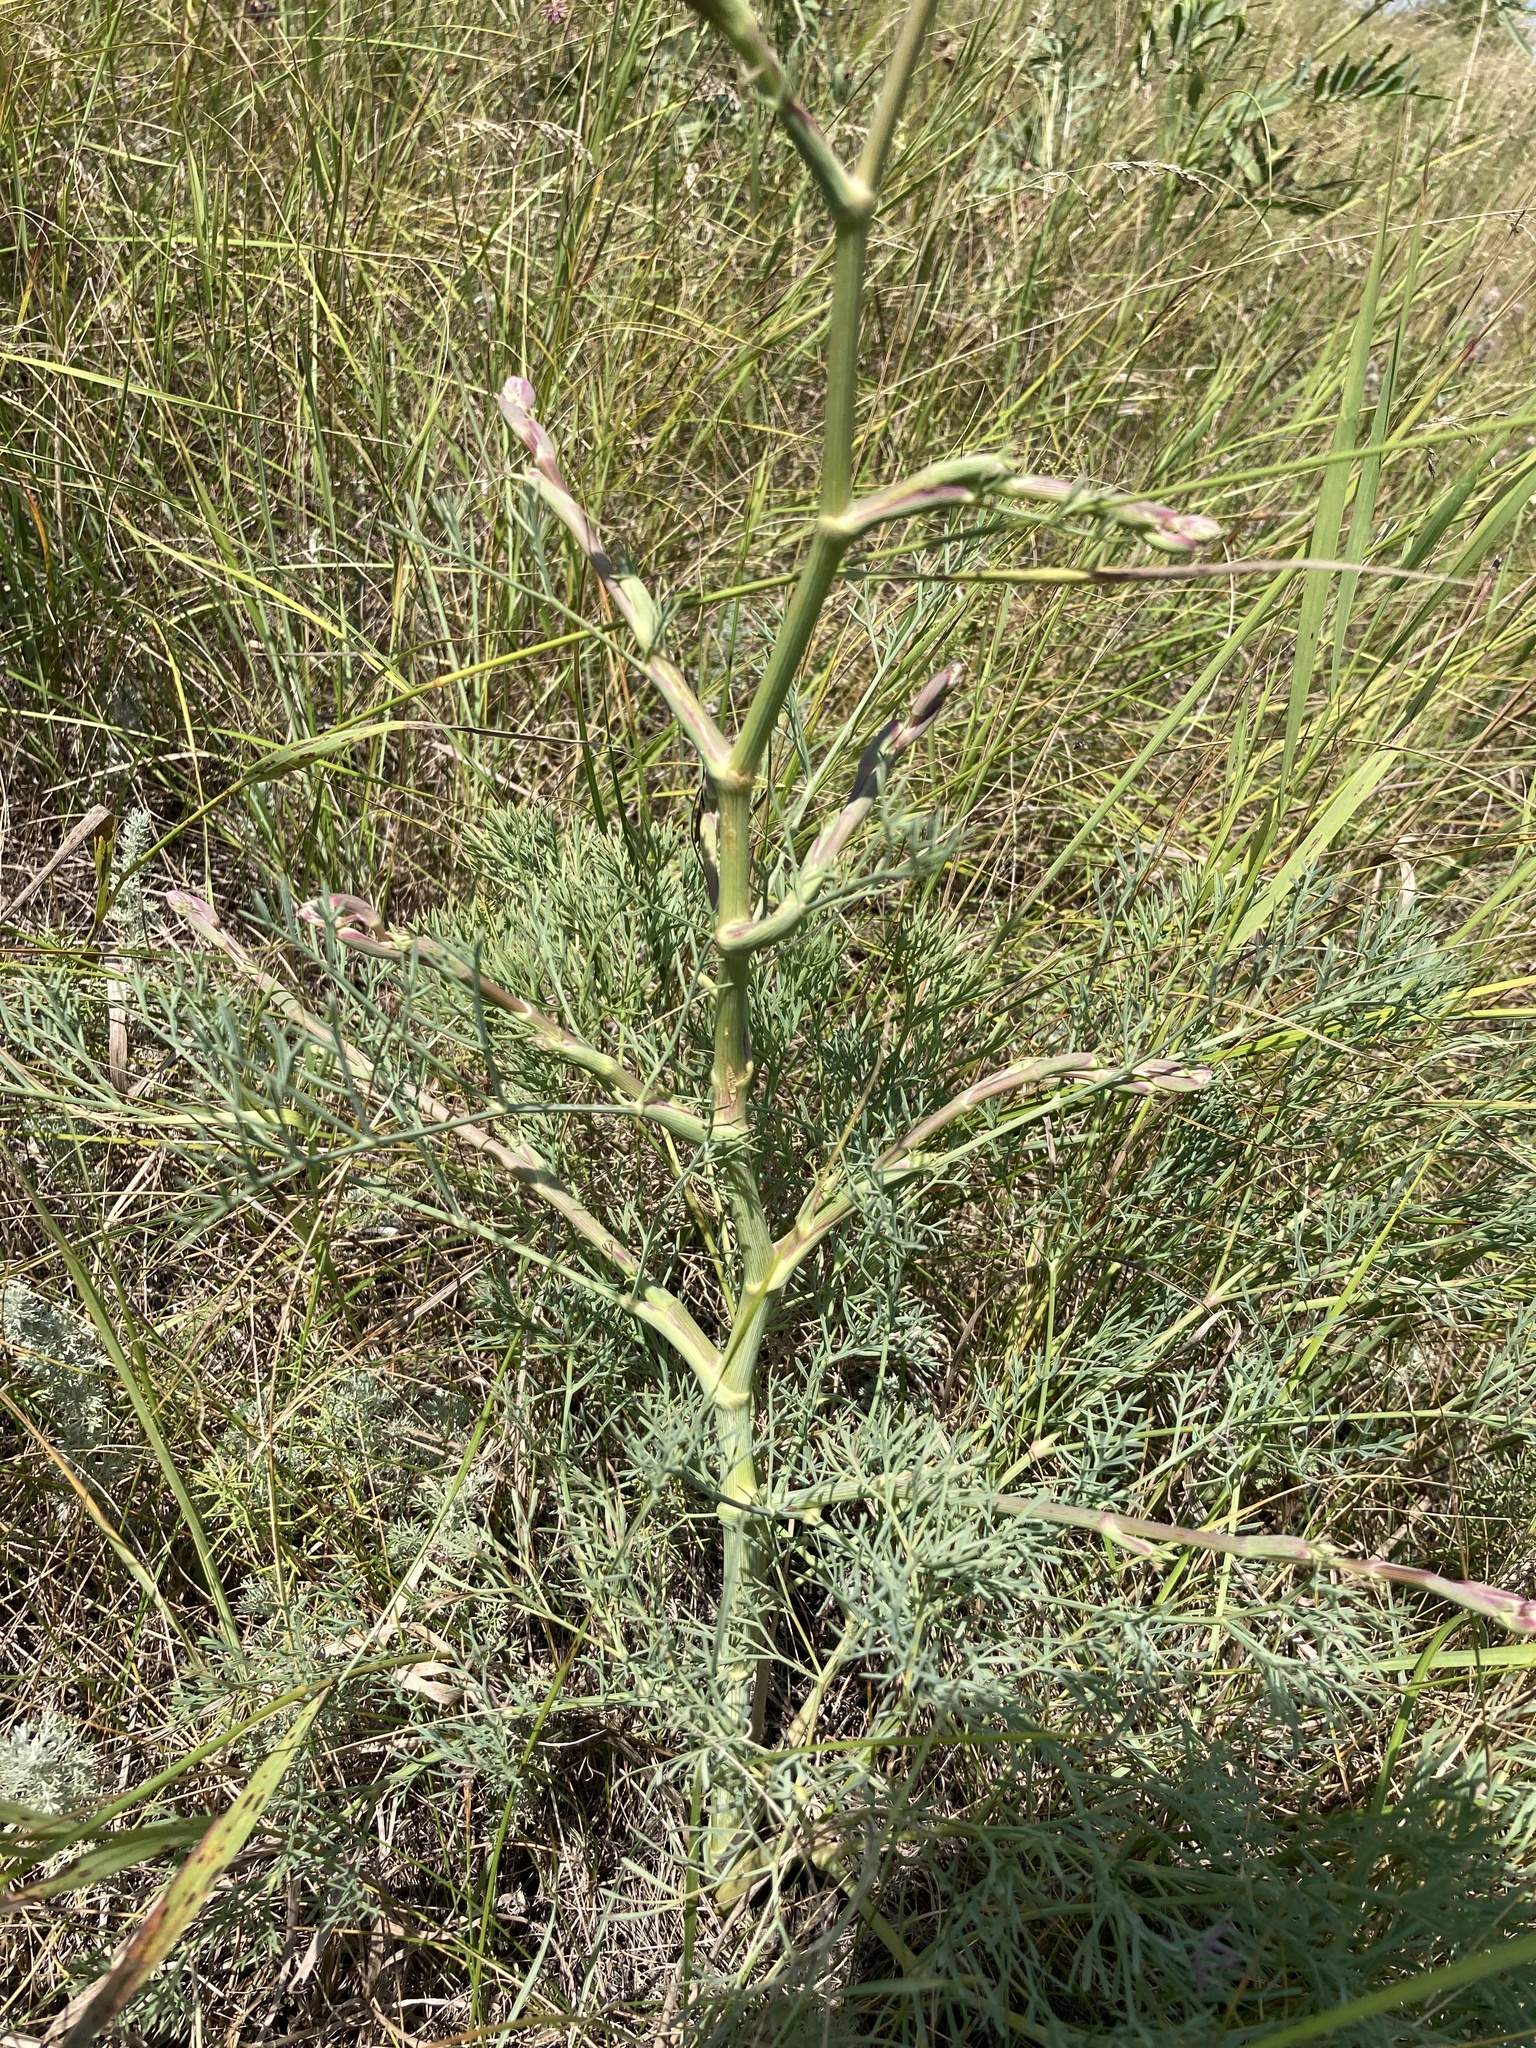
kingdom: Plantae
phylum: Tracheophyta
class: Magnoliopsida
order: Apiales
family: Apiaceae
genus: Seseli
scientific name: Seseli arenarium
